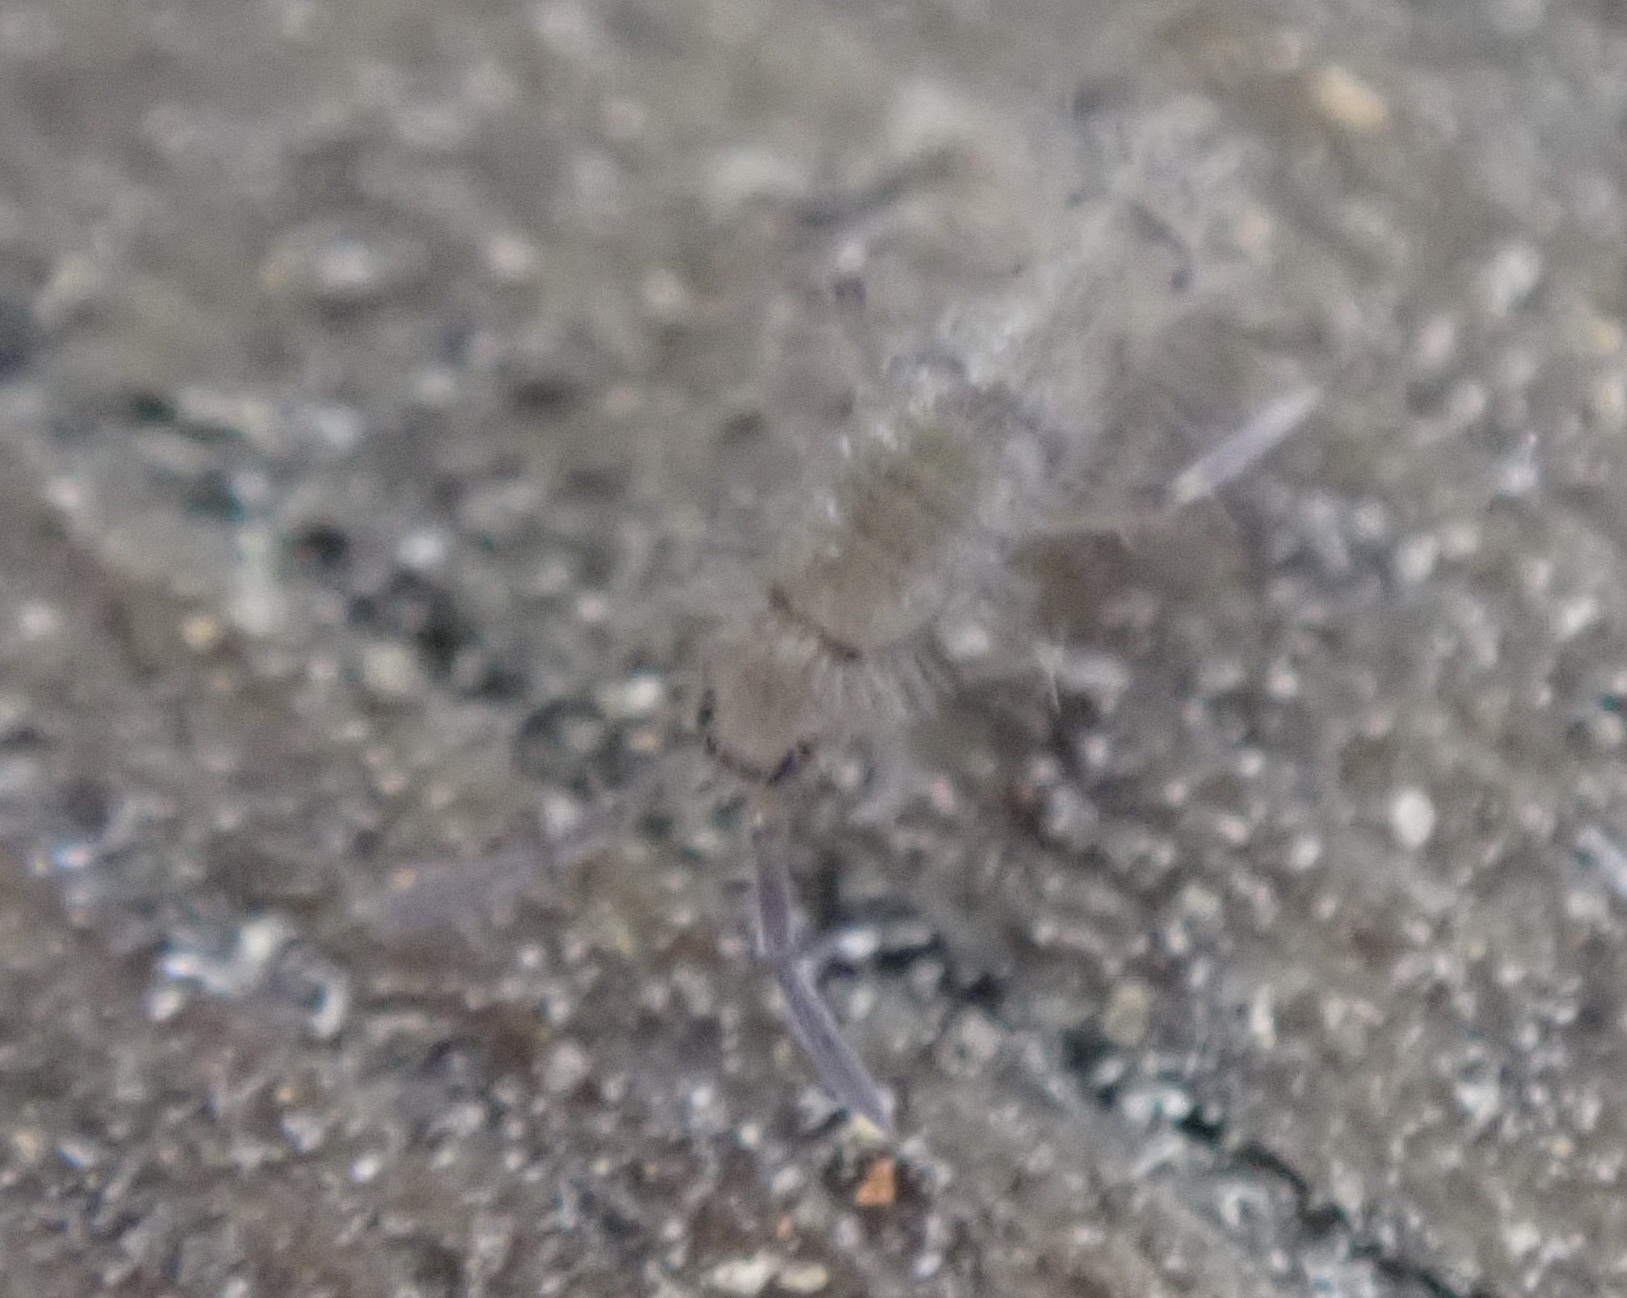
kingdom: Animalia
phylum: Arthropoda
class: Collembola
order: Entomobryomorpha
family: Entomobryidae
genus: Willowsia
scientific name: Willowsia nigromaculata
